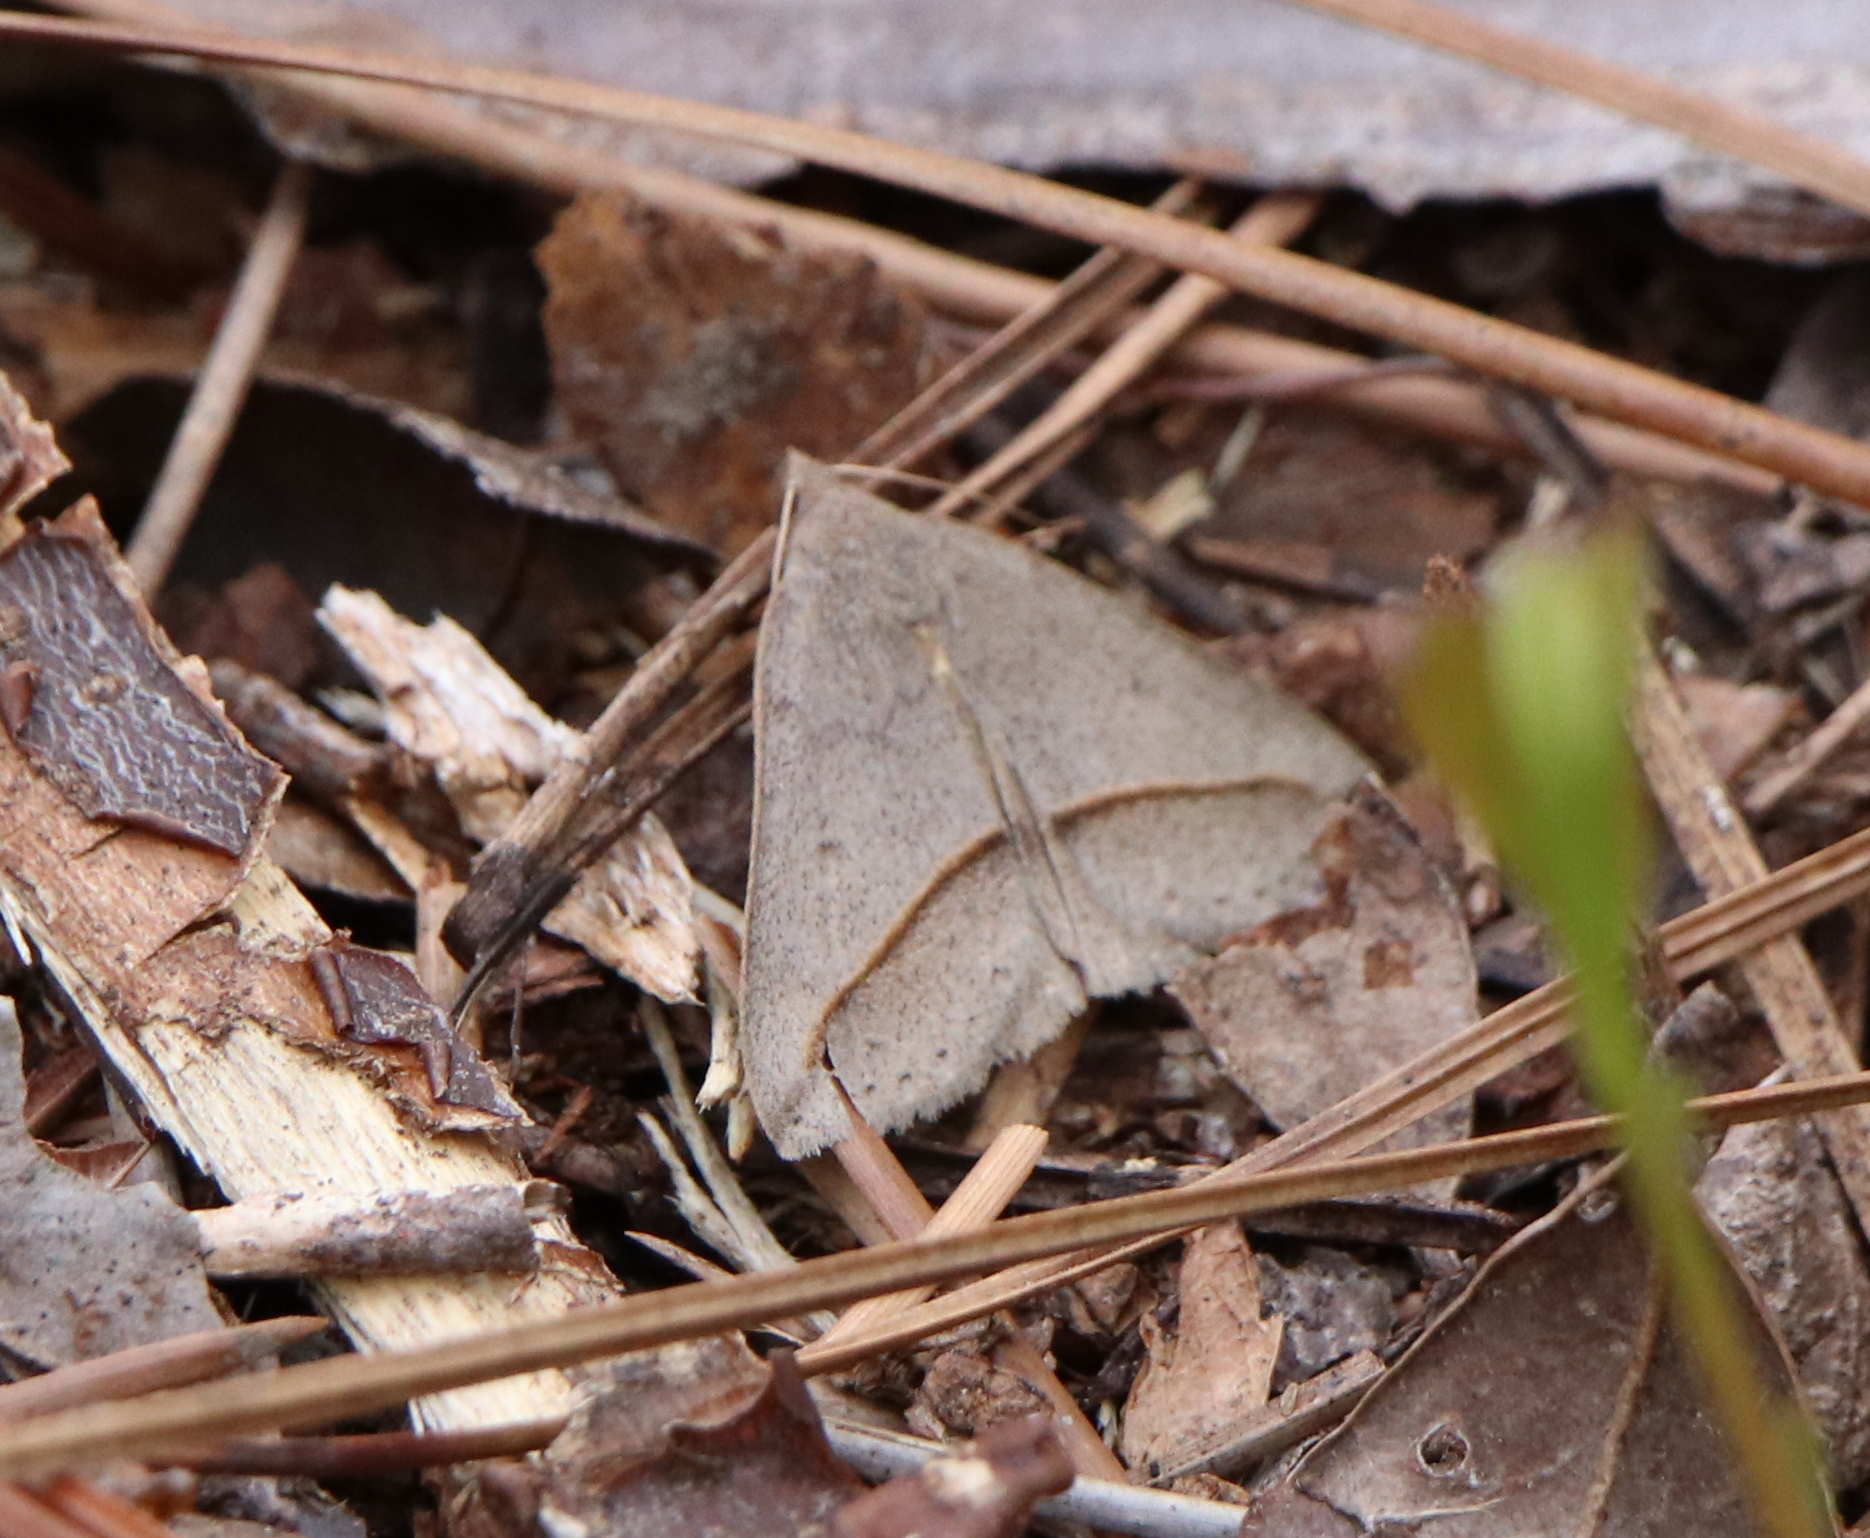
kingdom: Animalia
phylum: Arthropoda
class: Insecta
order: Lepidoptera
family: Erebidae
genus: Argyrostrotis
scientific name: Argyrostrotis flavistriaria
